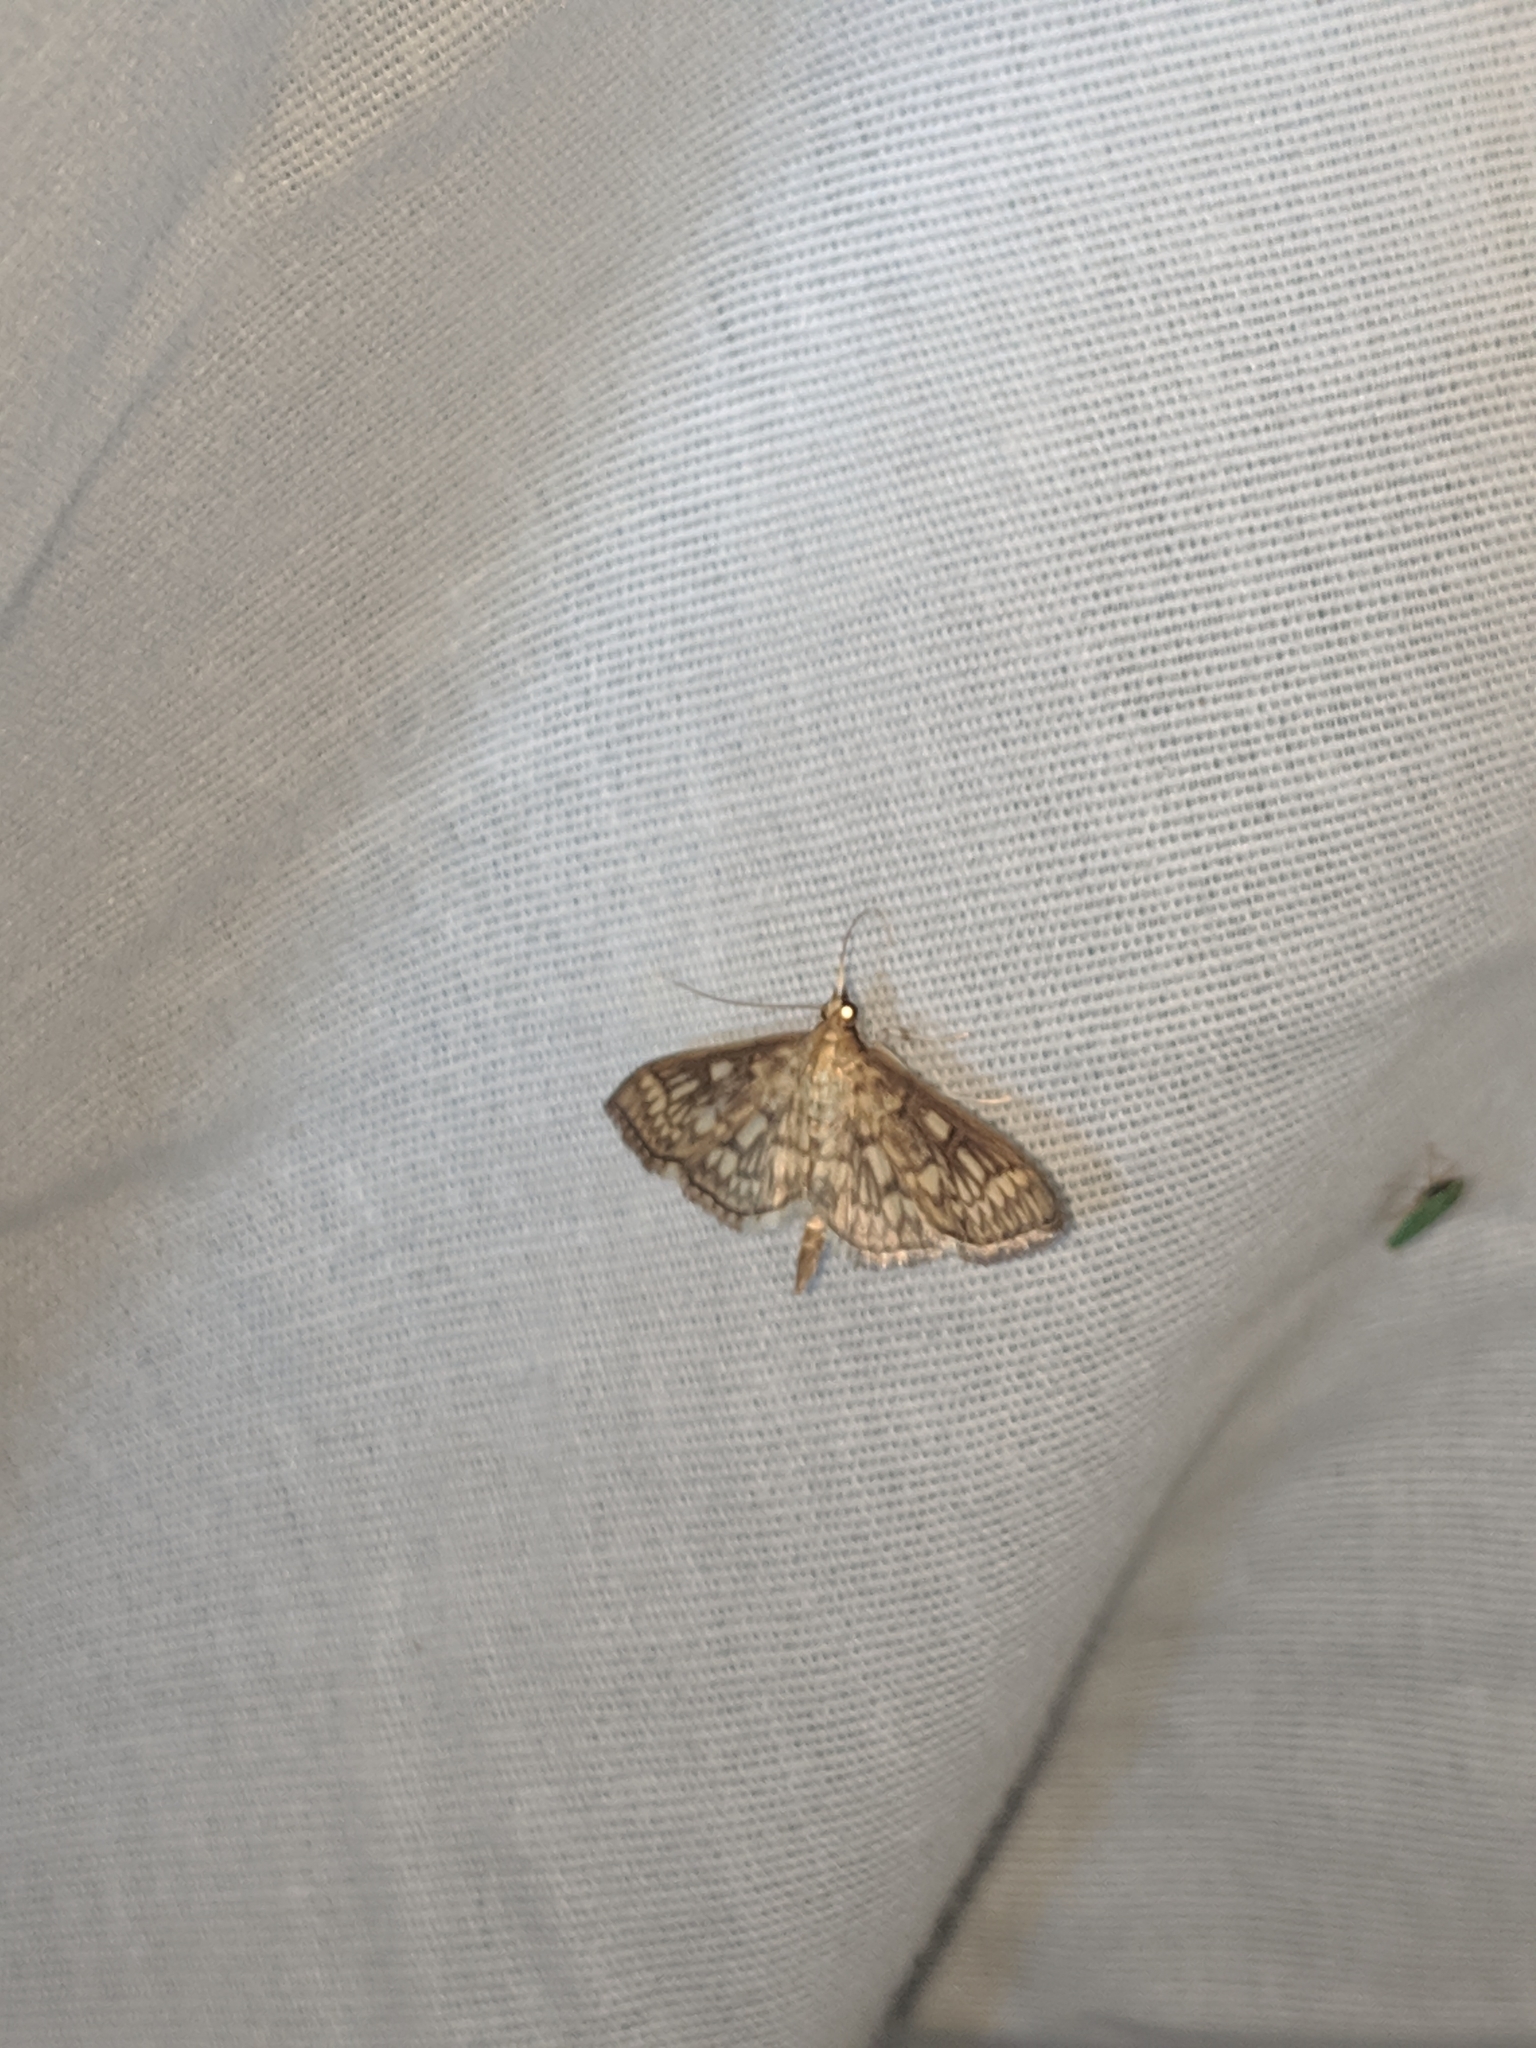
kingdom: Animalia
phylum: Arthropoda
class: Insecta
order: Lepidoptera
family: Crambidae
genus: Herpetogramma
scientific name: Herpetogramma thestealis
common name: Zigzag herpetogramma moth
